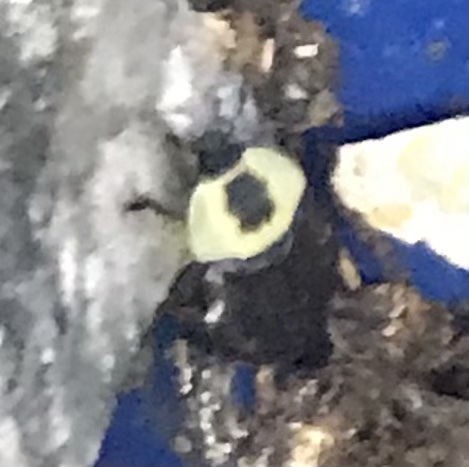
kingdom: Animalia
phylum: Arthropoda
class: Insecta
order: Coleoptera
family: Staphylinidae
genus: Necrophila
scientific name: Necrophila americana
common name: American carrion beetle
